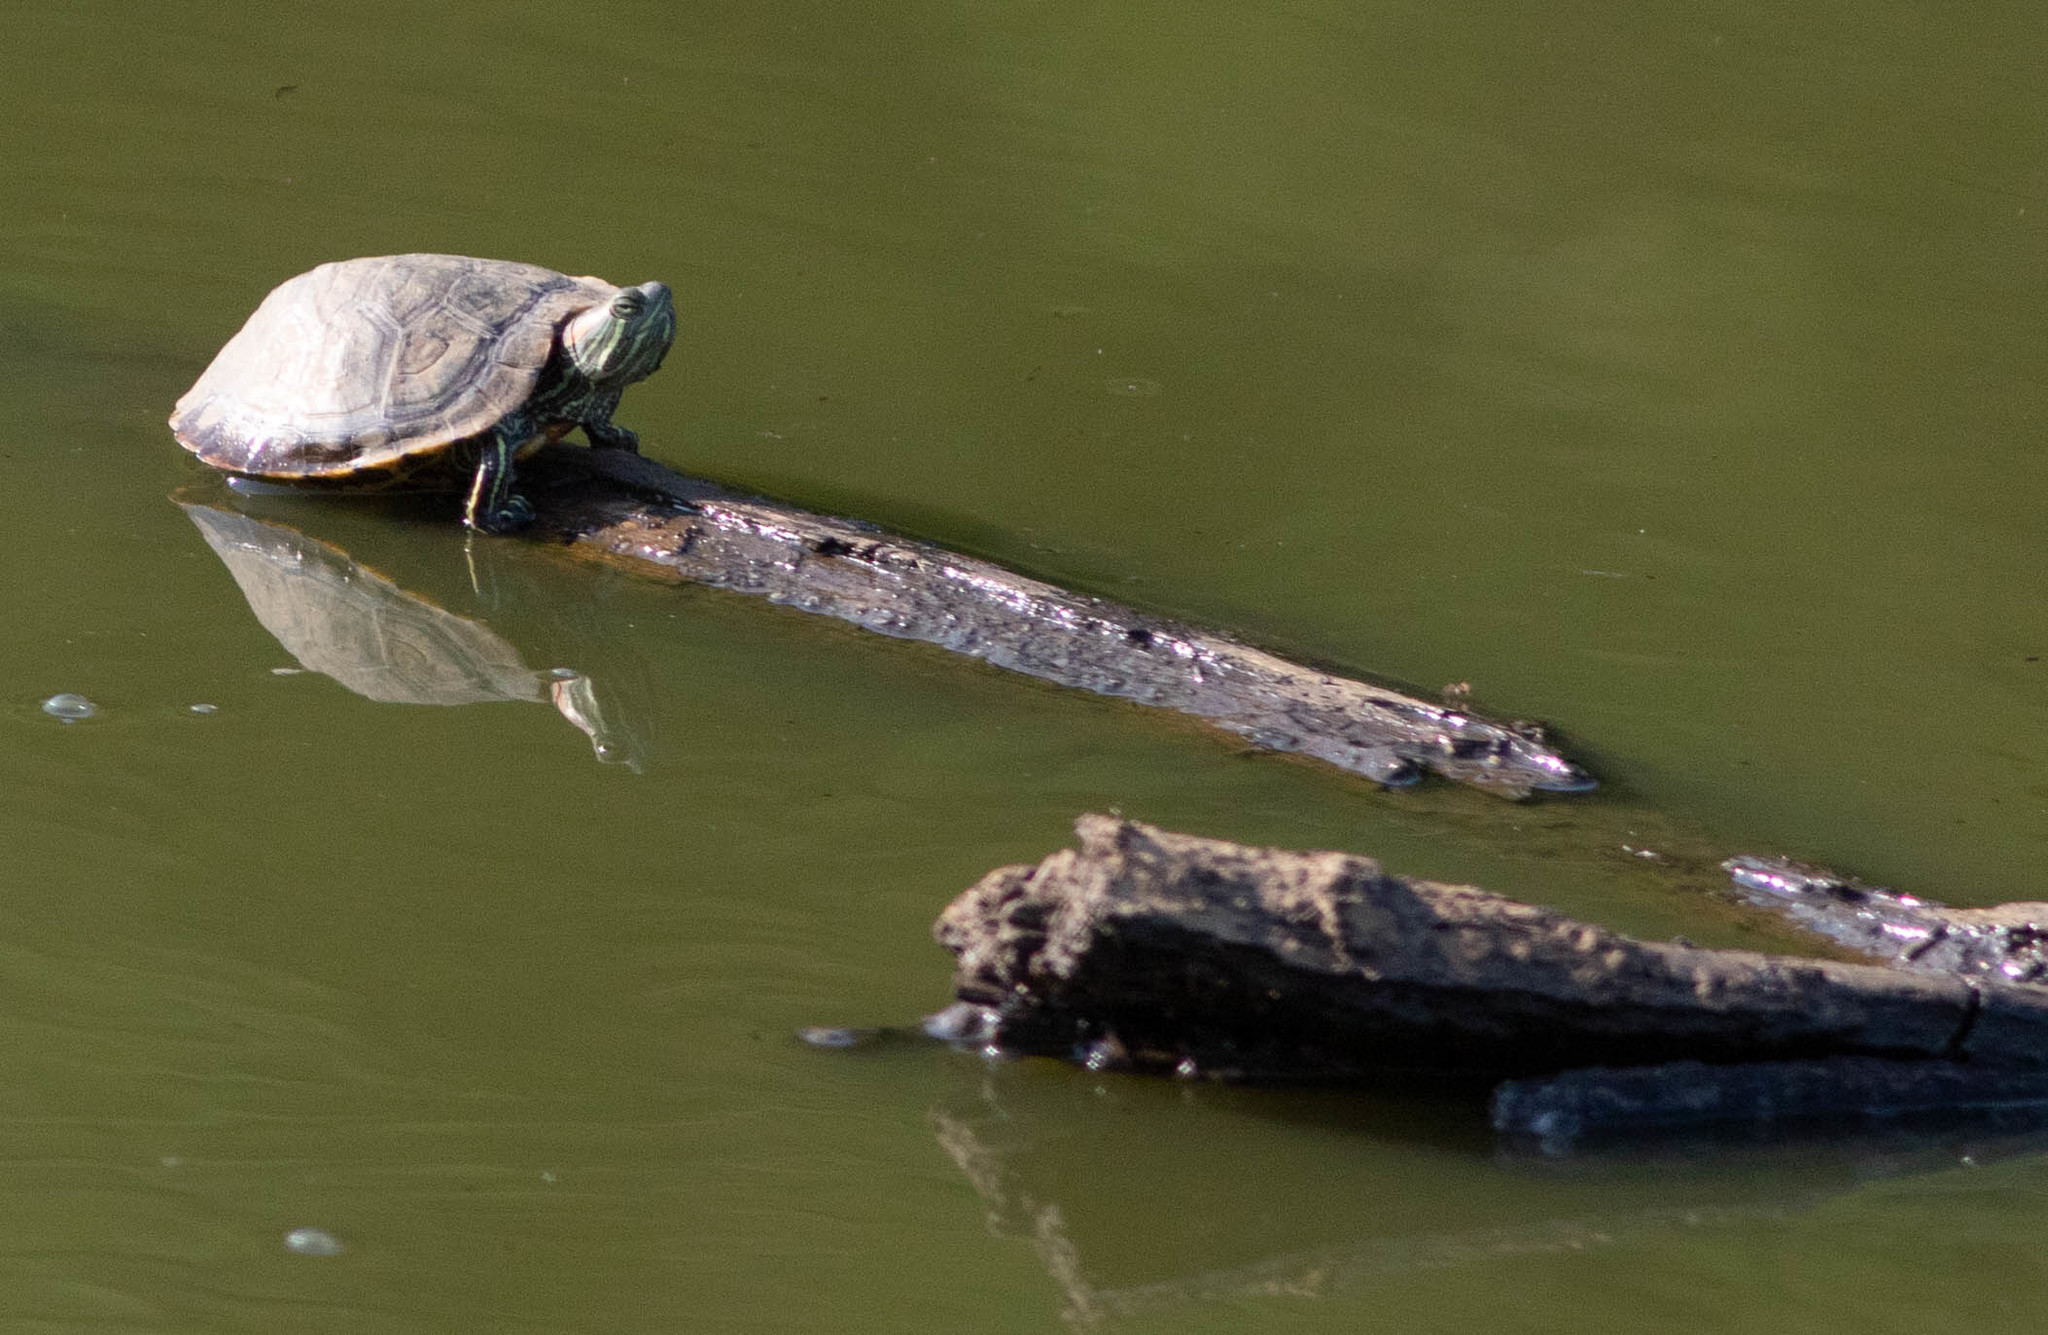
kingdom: Animalia
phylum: Chordata
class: Testudines
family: Emydidae
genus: Trachemys
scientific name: Trachemys scripta
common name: Slider
